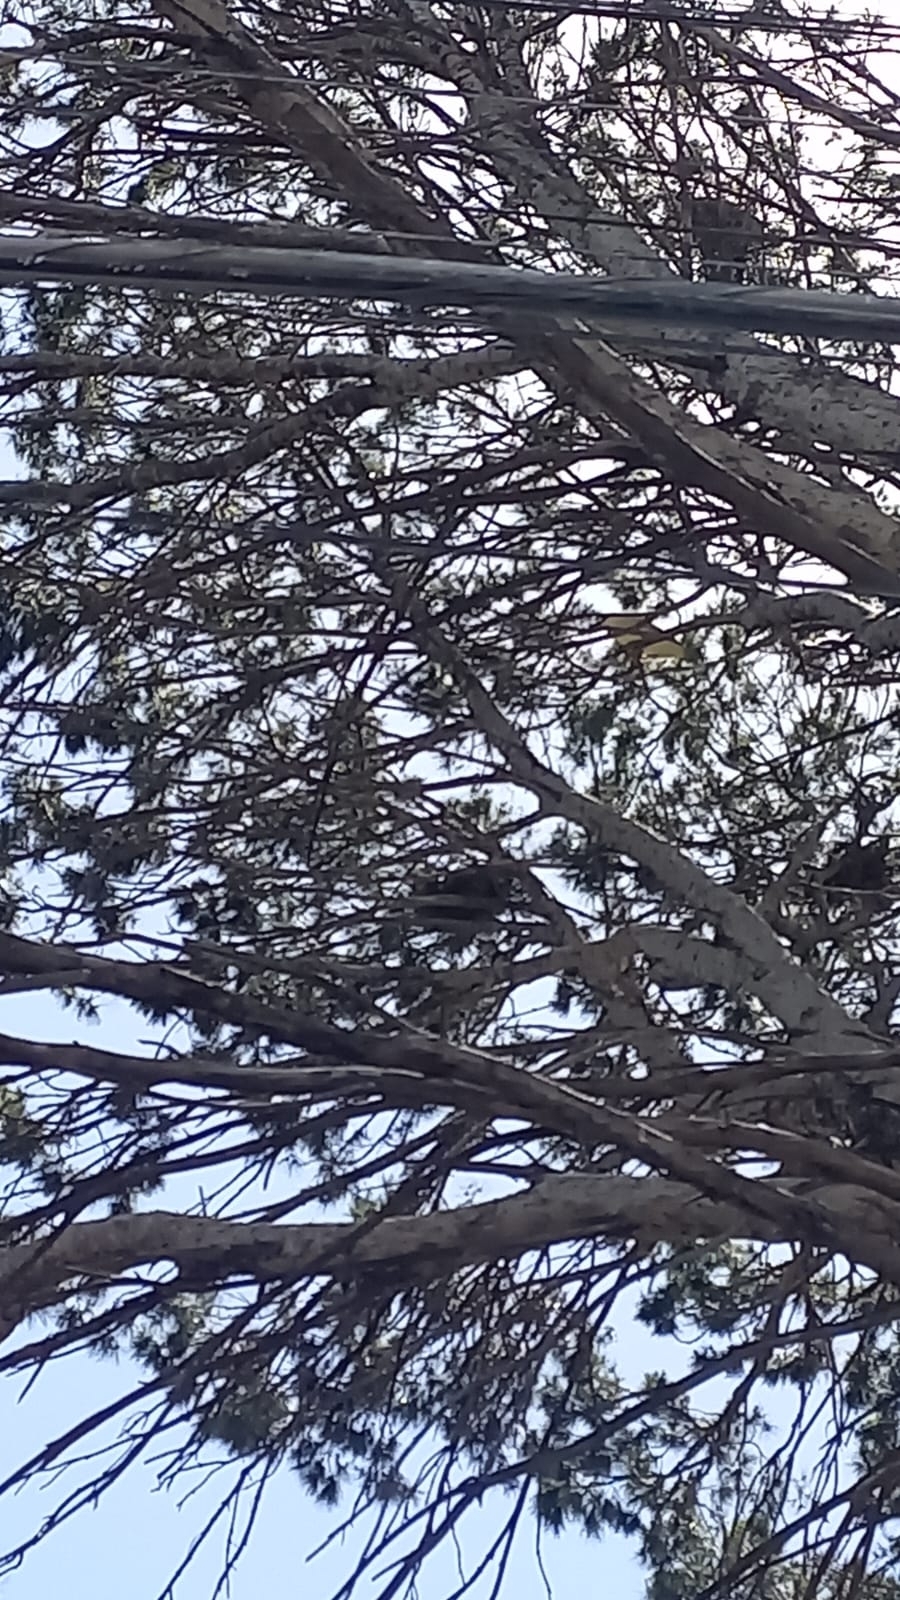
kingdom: Animalia
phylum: Chordata
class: Aves
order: Pelecaniformes
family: Ardeidae
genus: Nycticorax
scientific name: Nycticorax nycticorax
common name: Black-crowned night heron
